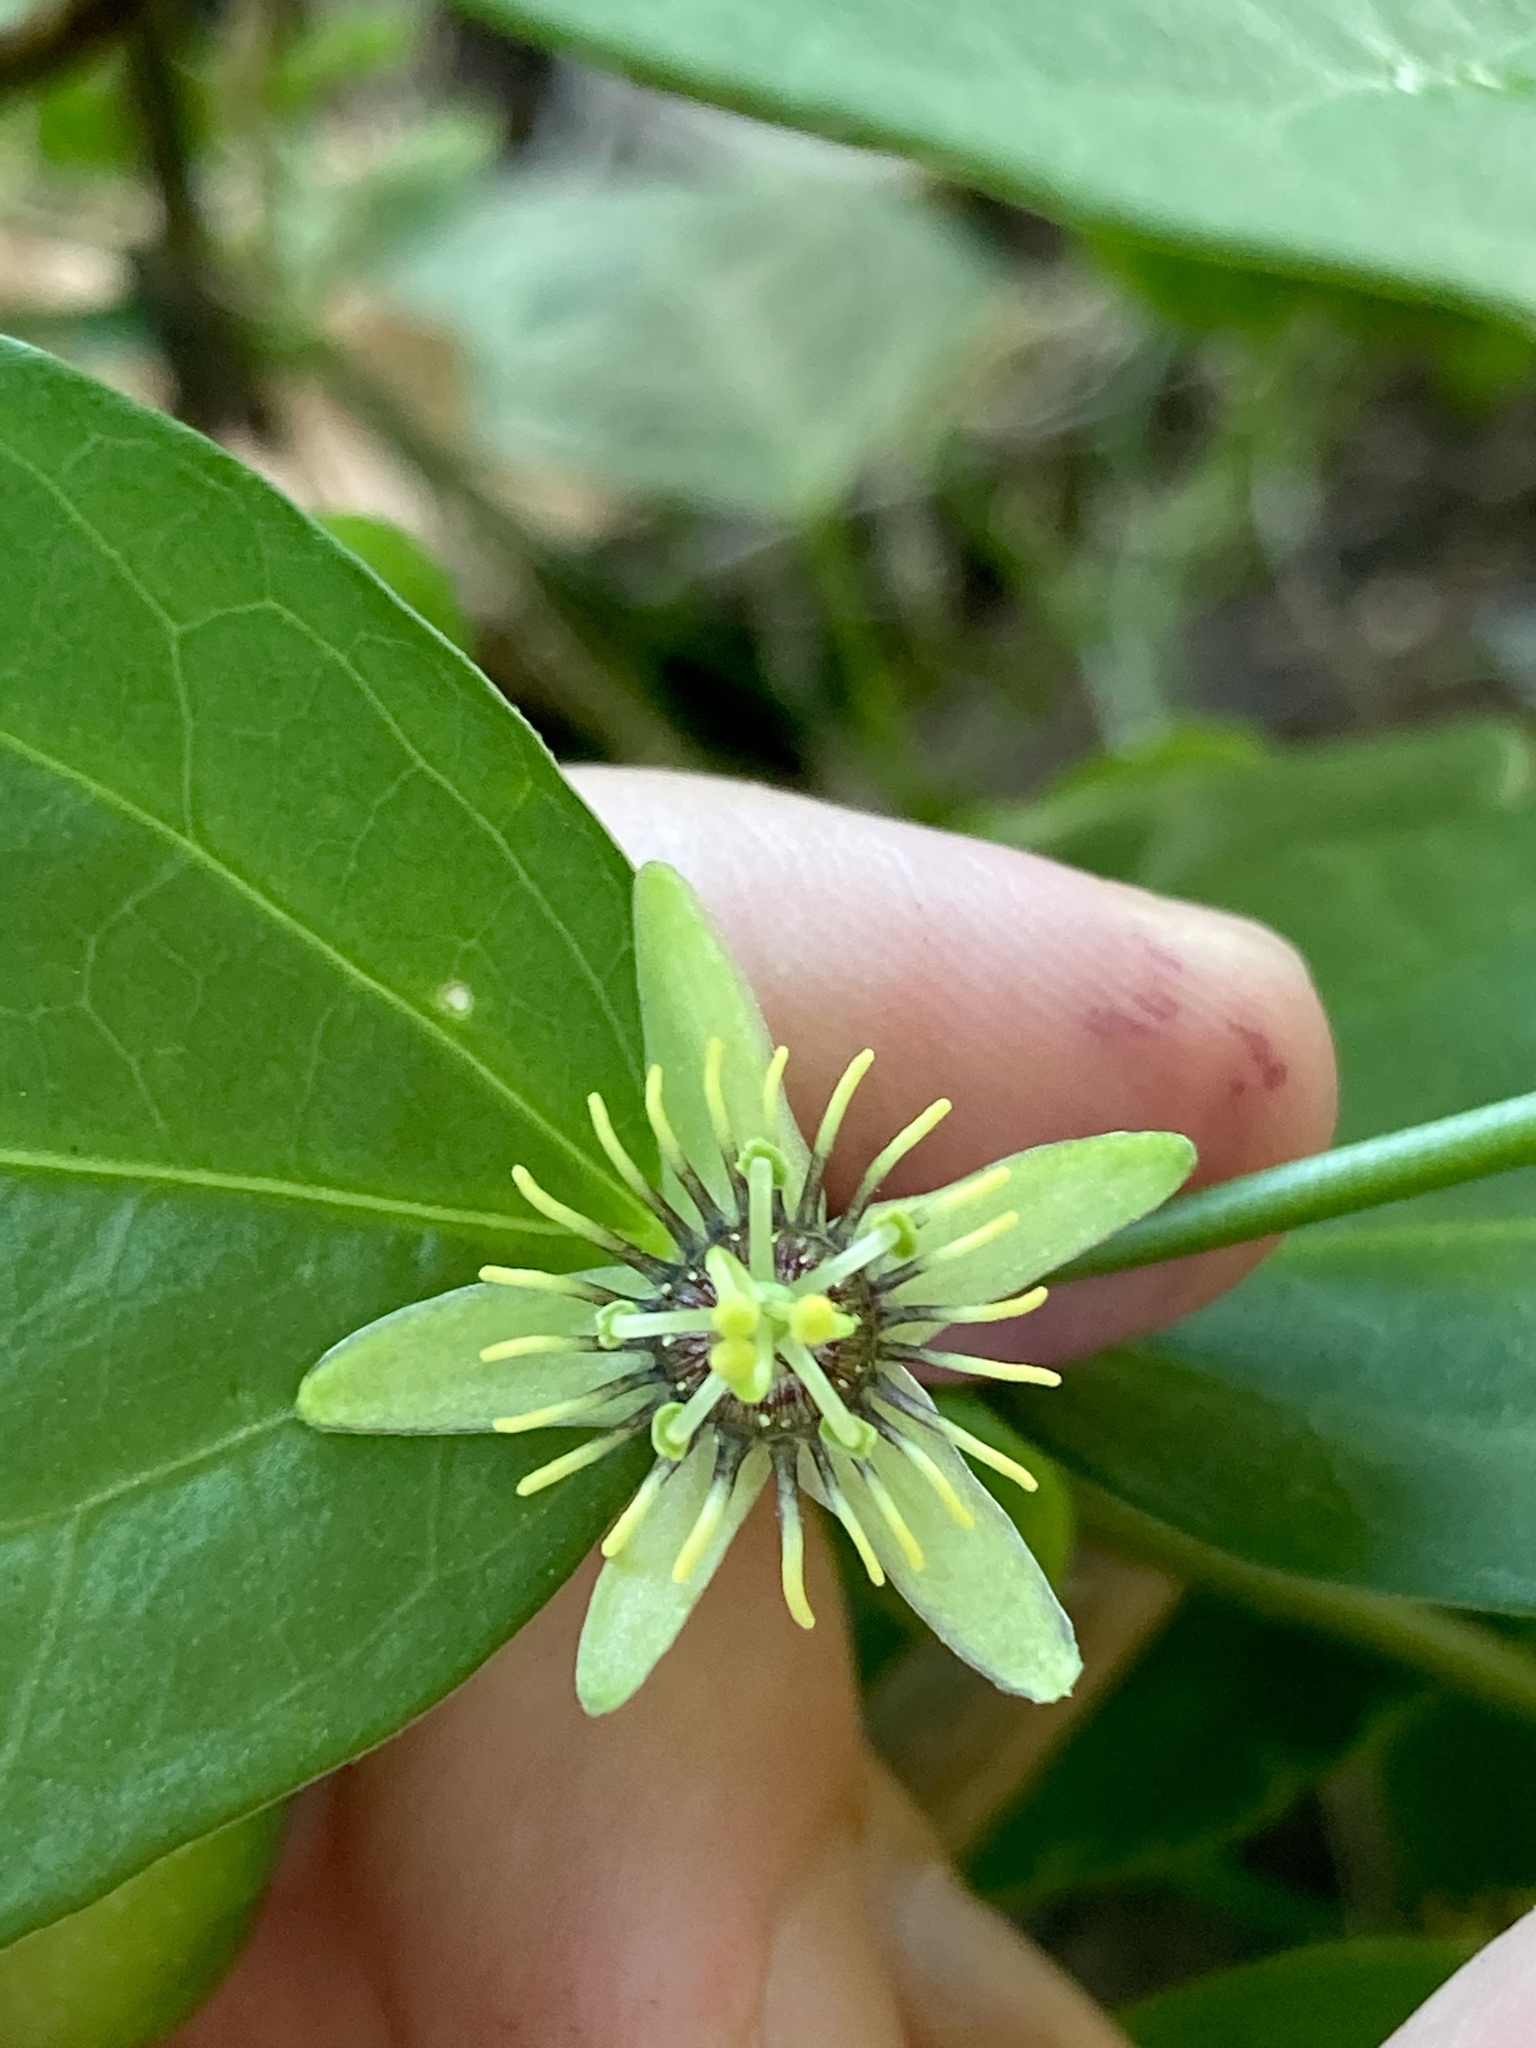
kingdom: Plantae
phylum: Tracheophyta
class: Magnoliopsida
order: Malpighiales
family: Passifloraceae
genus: Passiflora
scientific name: Passiflora pallida
